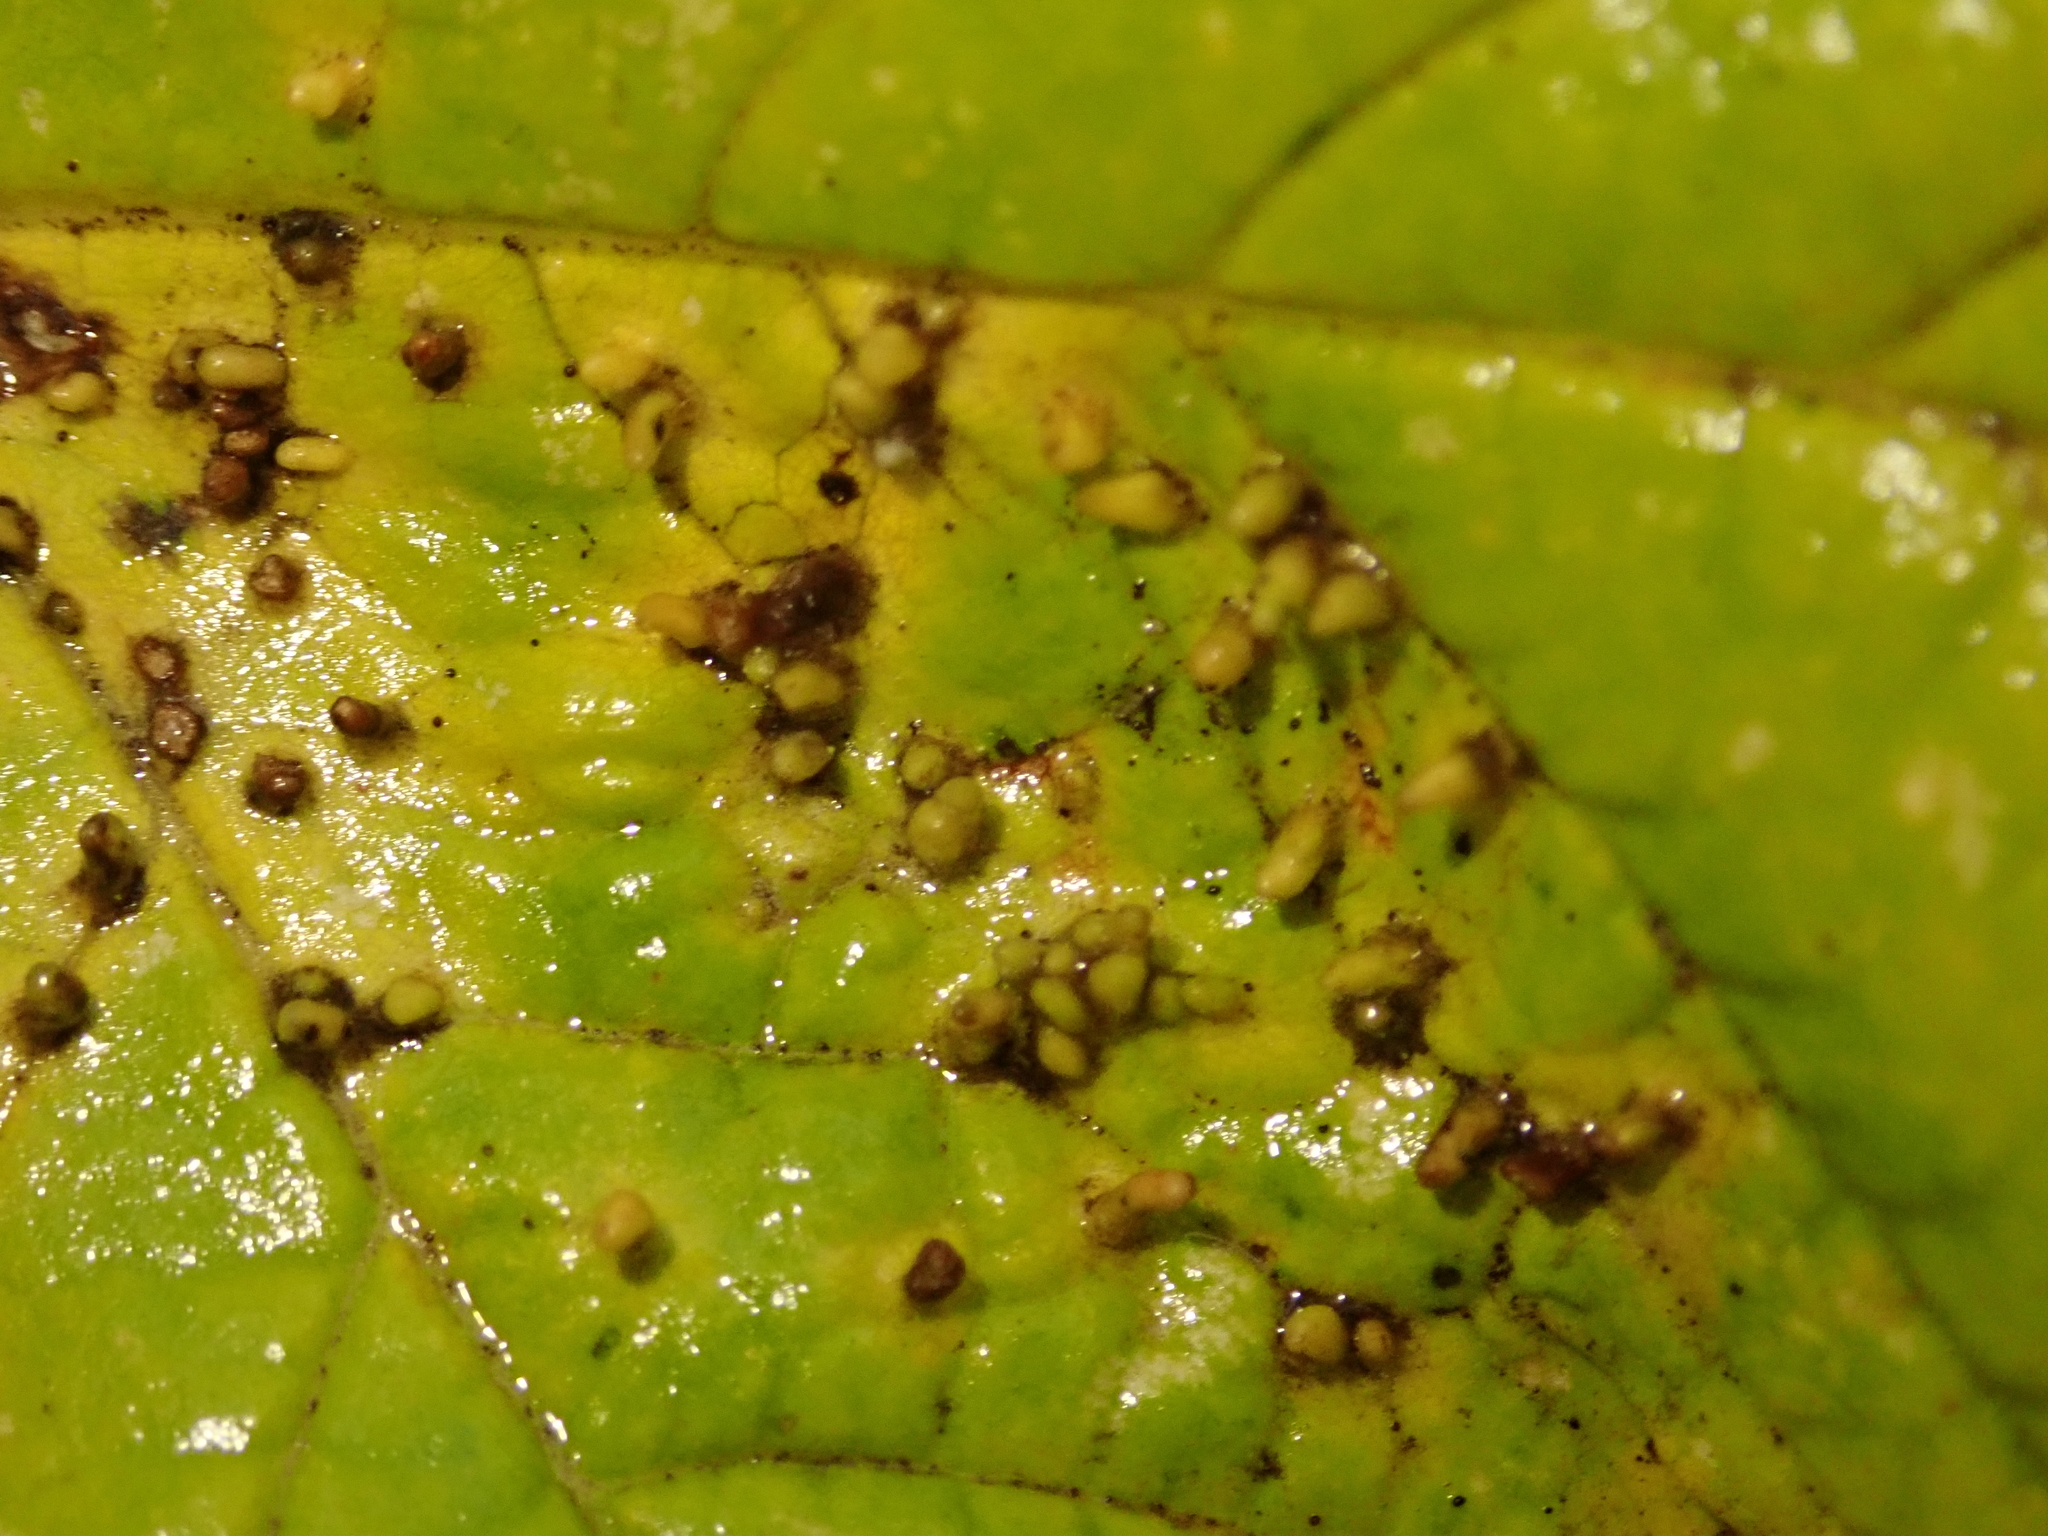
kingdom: Animalia
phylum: Arthropoda
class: Arachnida
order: Trombidiformes
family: Eriophyidae
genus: Aceria
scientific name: Aceria cephaloneus
